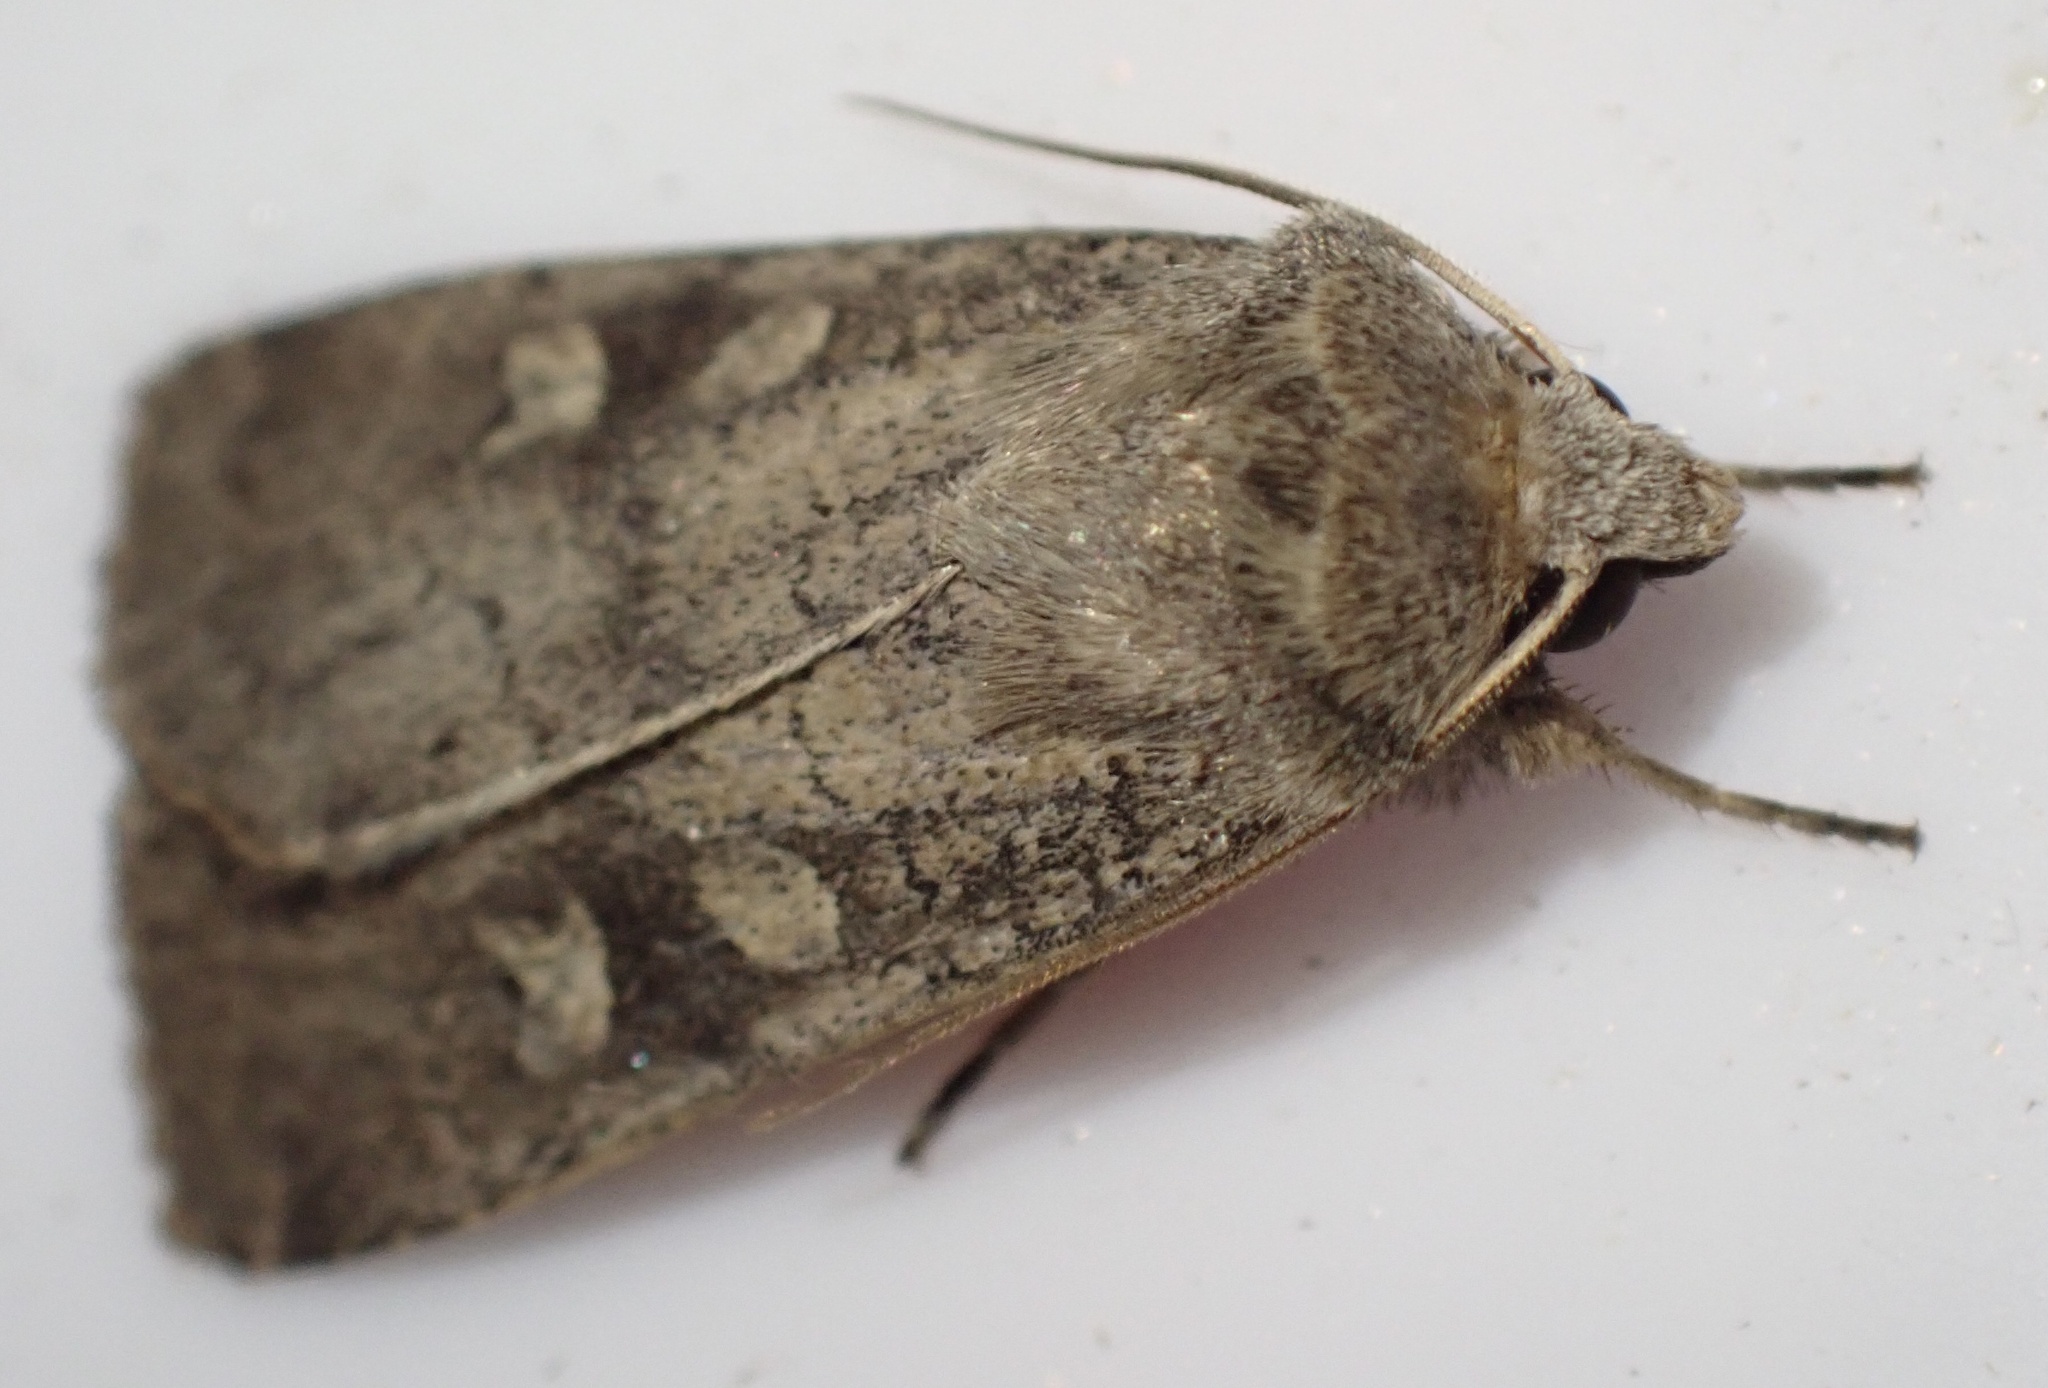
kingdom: Animalia
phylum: Arthropoda
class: Insecta
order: Lepidoptera
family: Noctuidae
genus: Xestia
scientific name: Xestia xanthographa
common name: Square-spot rustic
